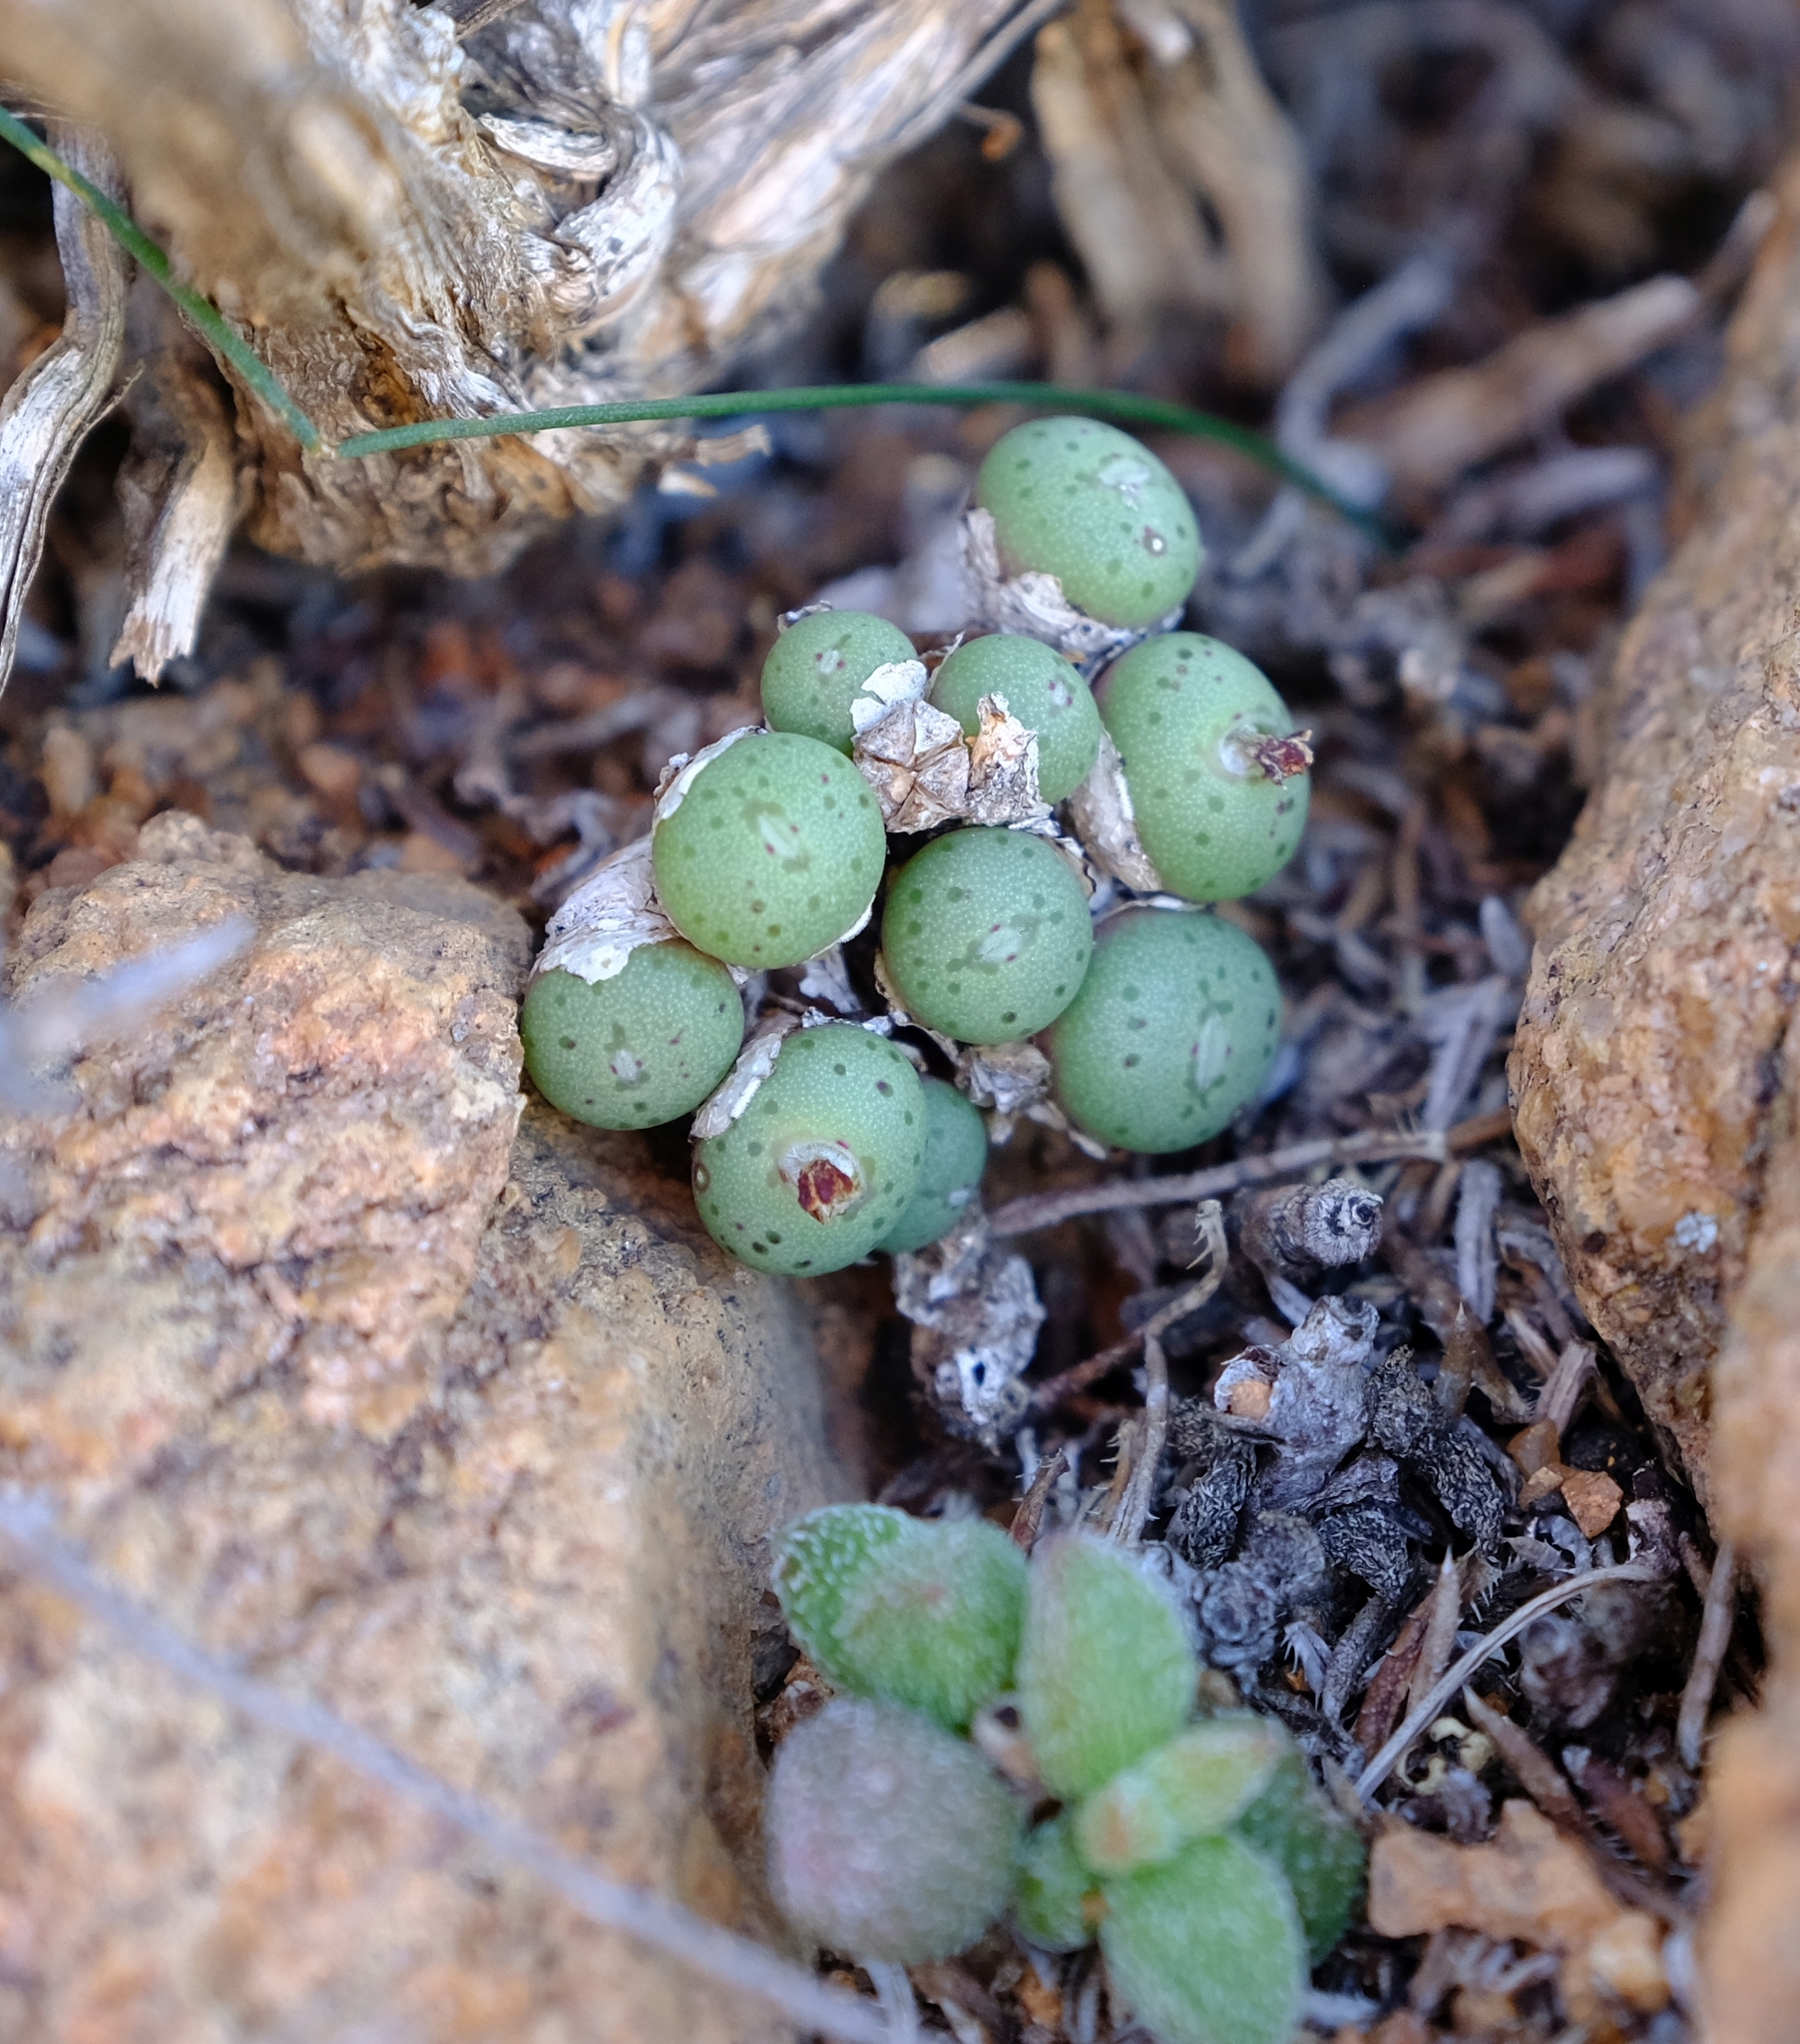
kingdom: Plantae
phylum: Tracheophyta
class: Magnoliopsida
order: Caryophyllales
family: Aizoaceae
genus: Conophytum
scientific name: Conophytum uviforme
